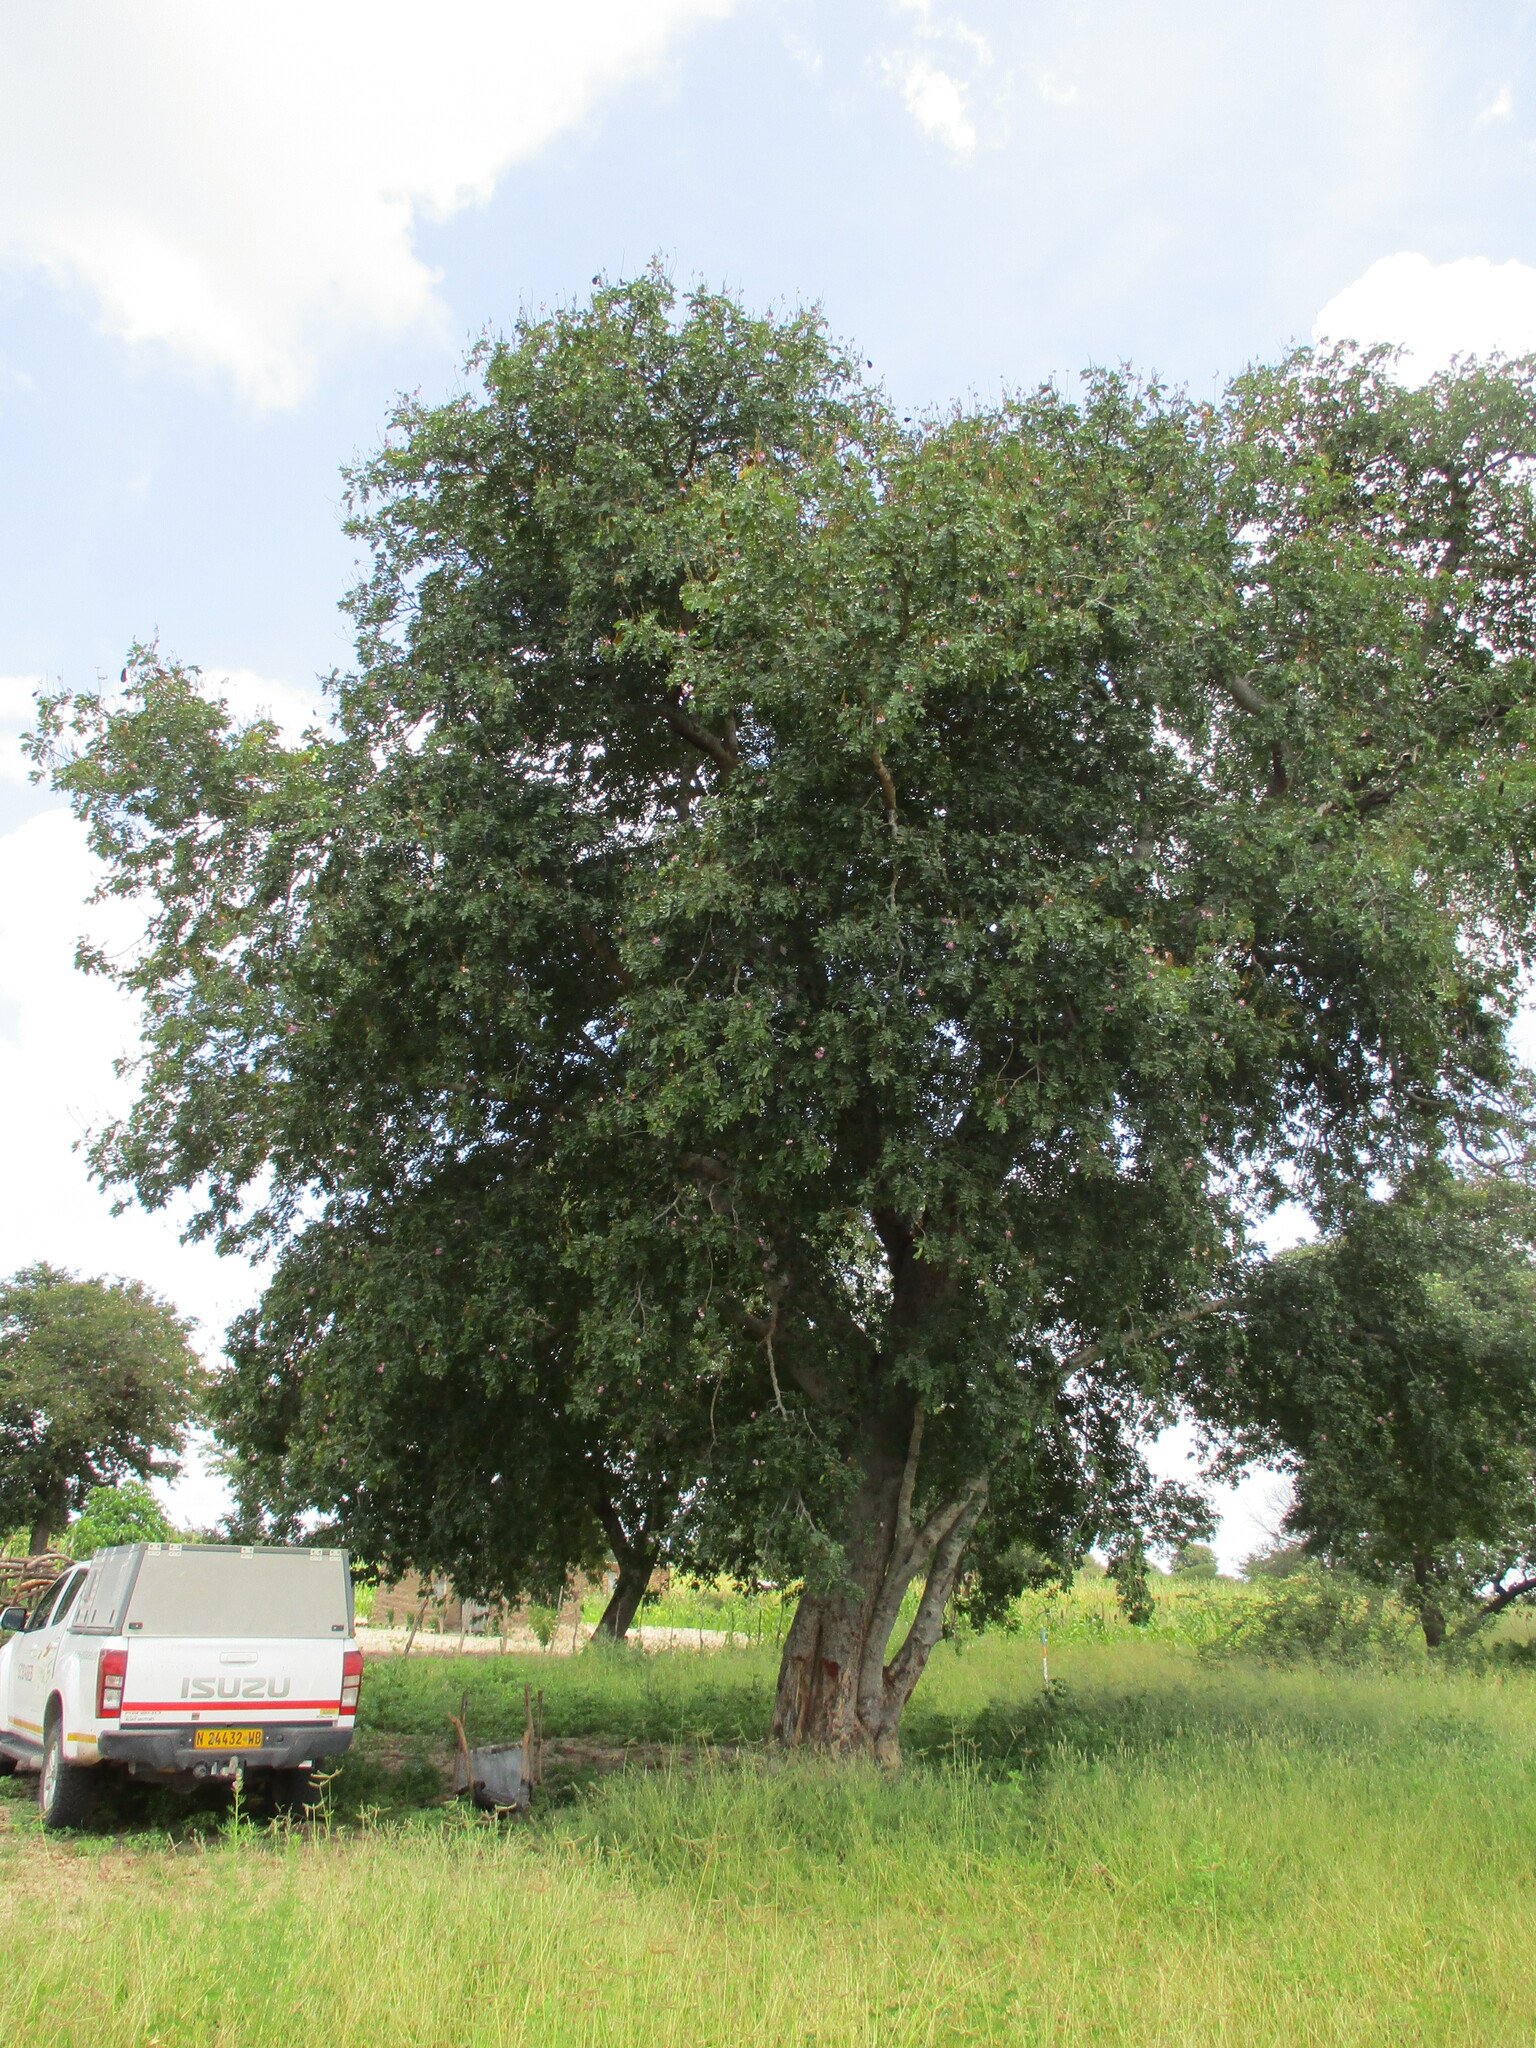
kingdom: Plantae
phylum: Tracheophyta
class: Magnoliopsida
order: Fabales
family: Fabaceae
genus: Baikiaea
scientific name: Baikiaea plurijuga
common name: Rhodesian-teak
